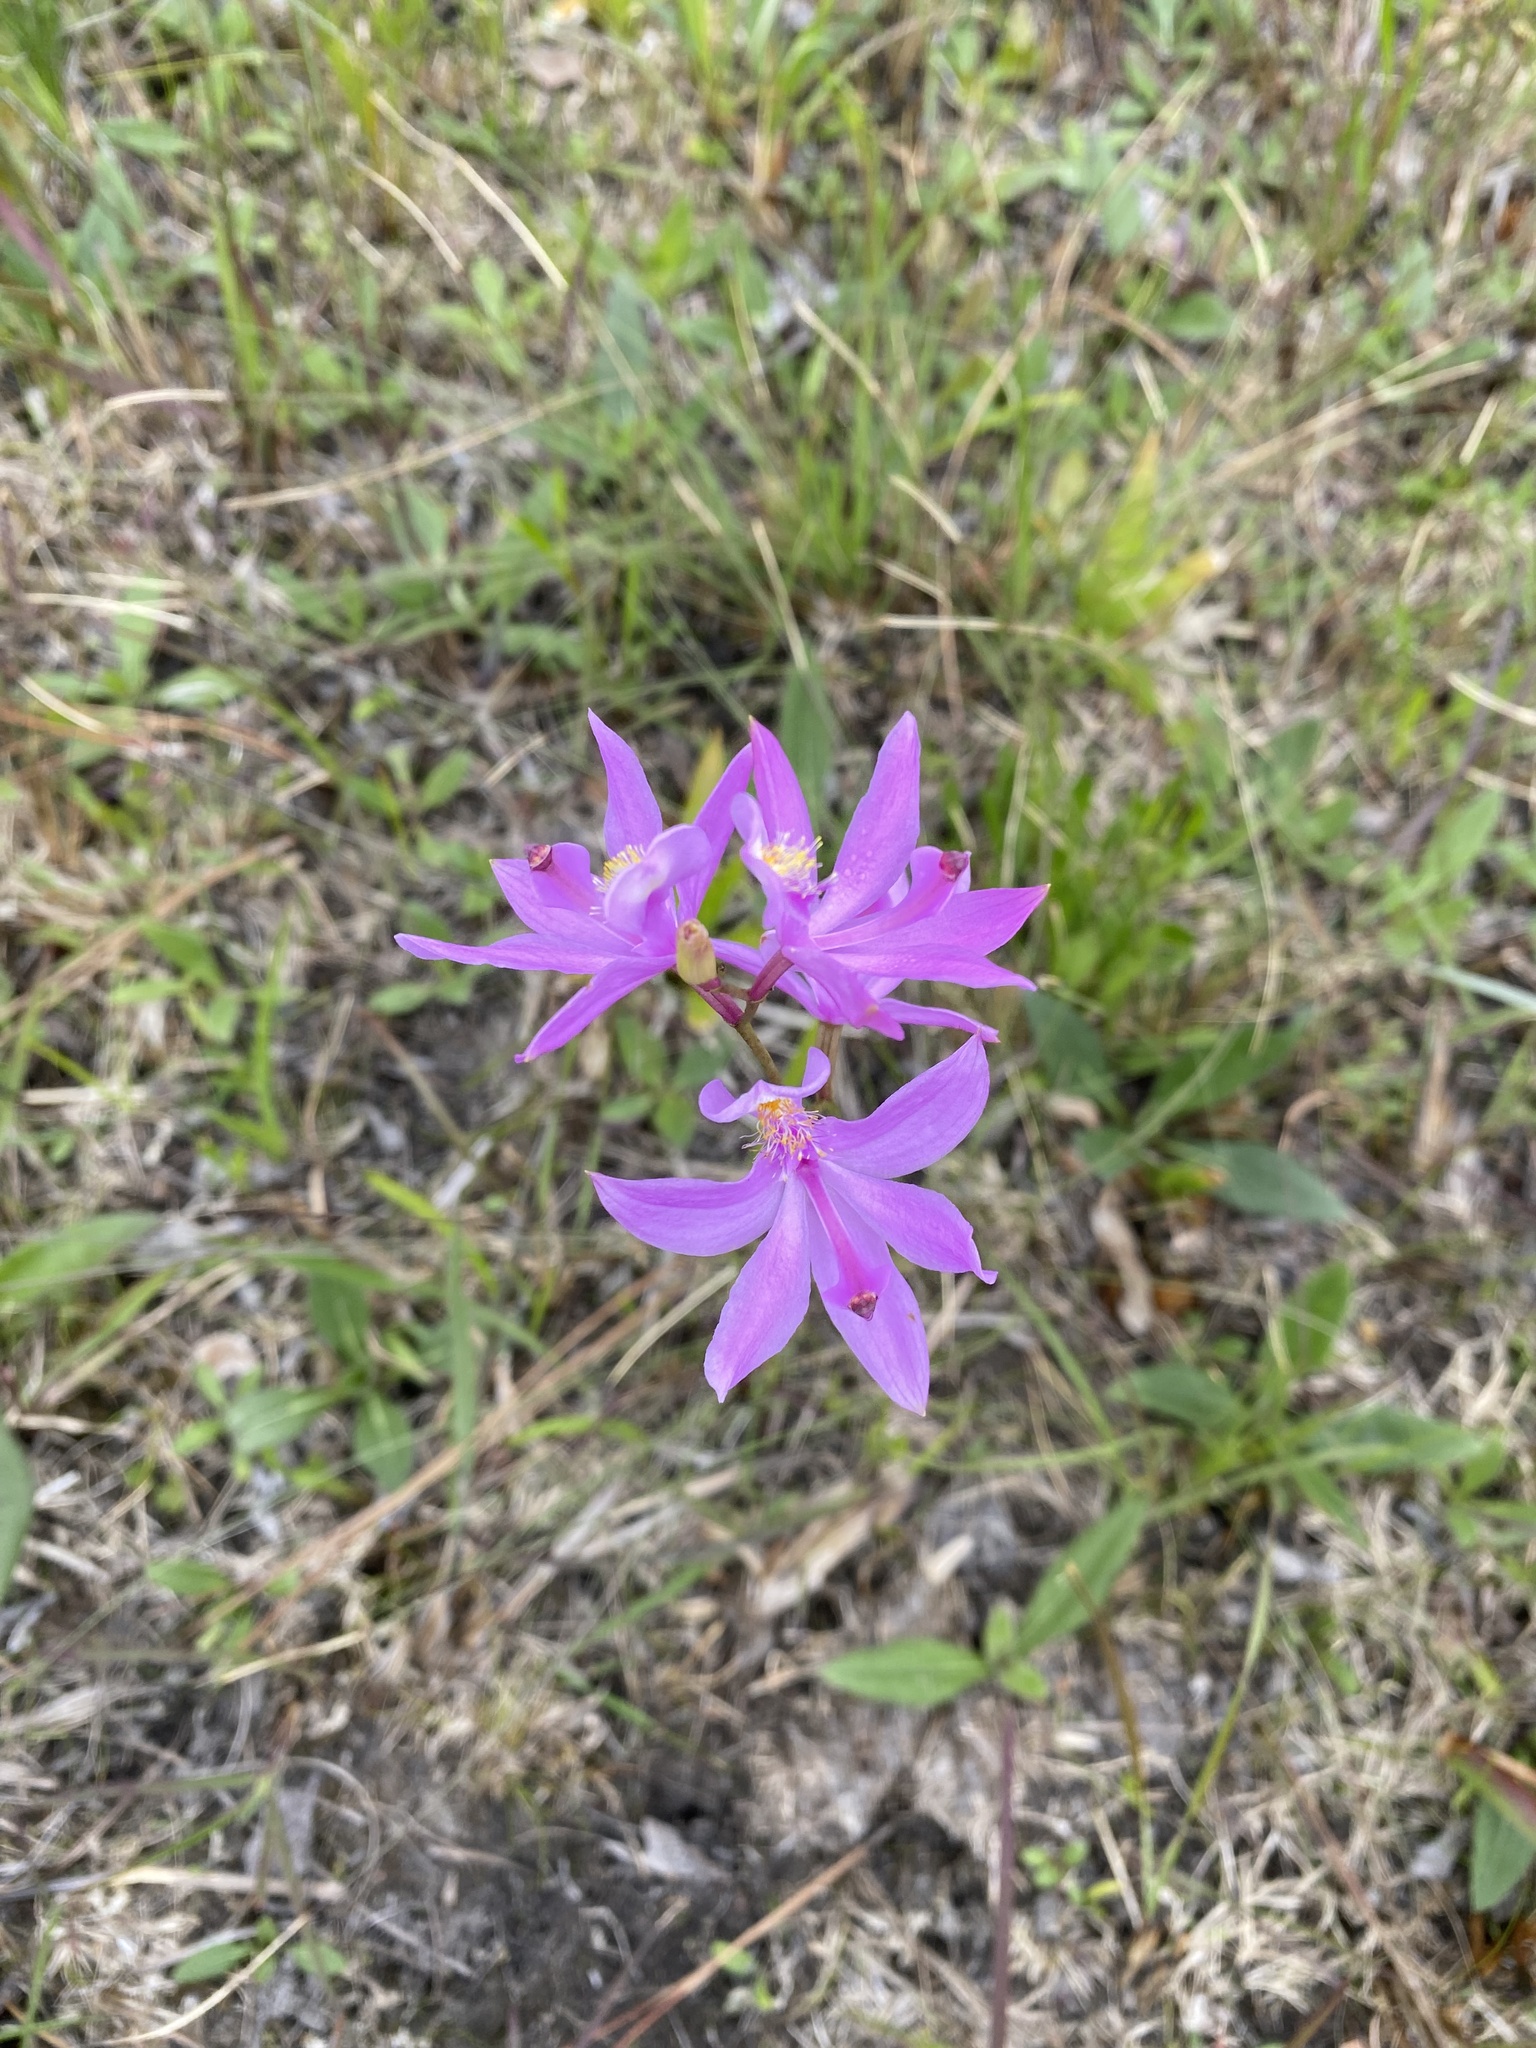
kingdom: Plantae
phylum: Tracheophyta
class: Liliopsida
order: Asparagales
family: Orchidaceae
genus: Calopogon
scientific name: Calopogon tuberosus
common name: Grass-pink
